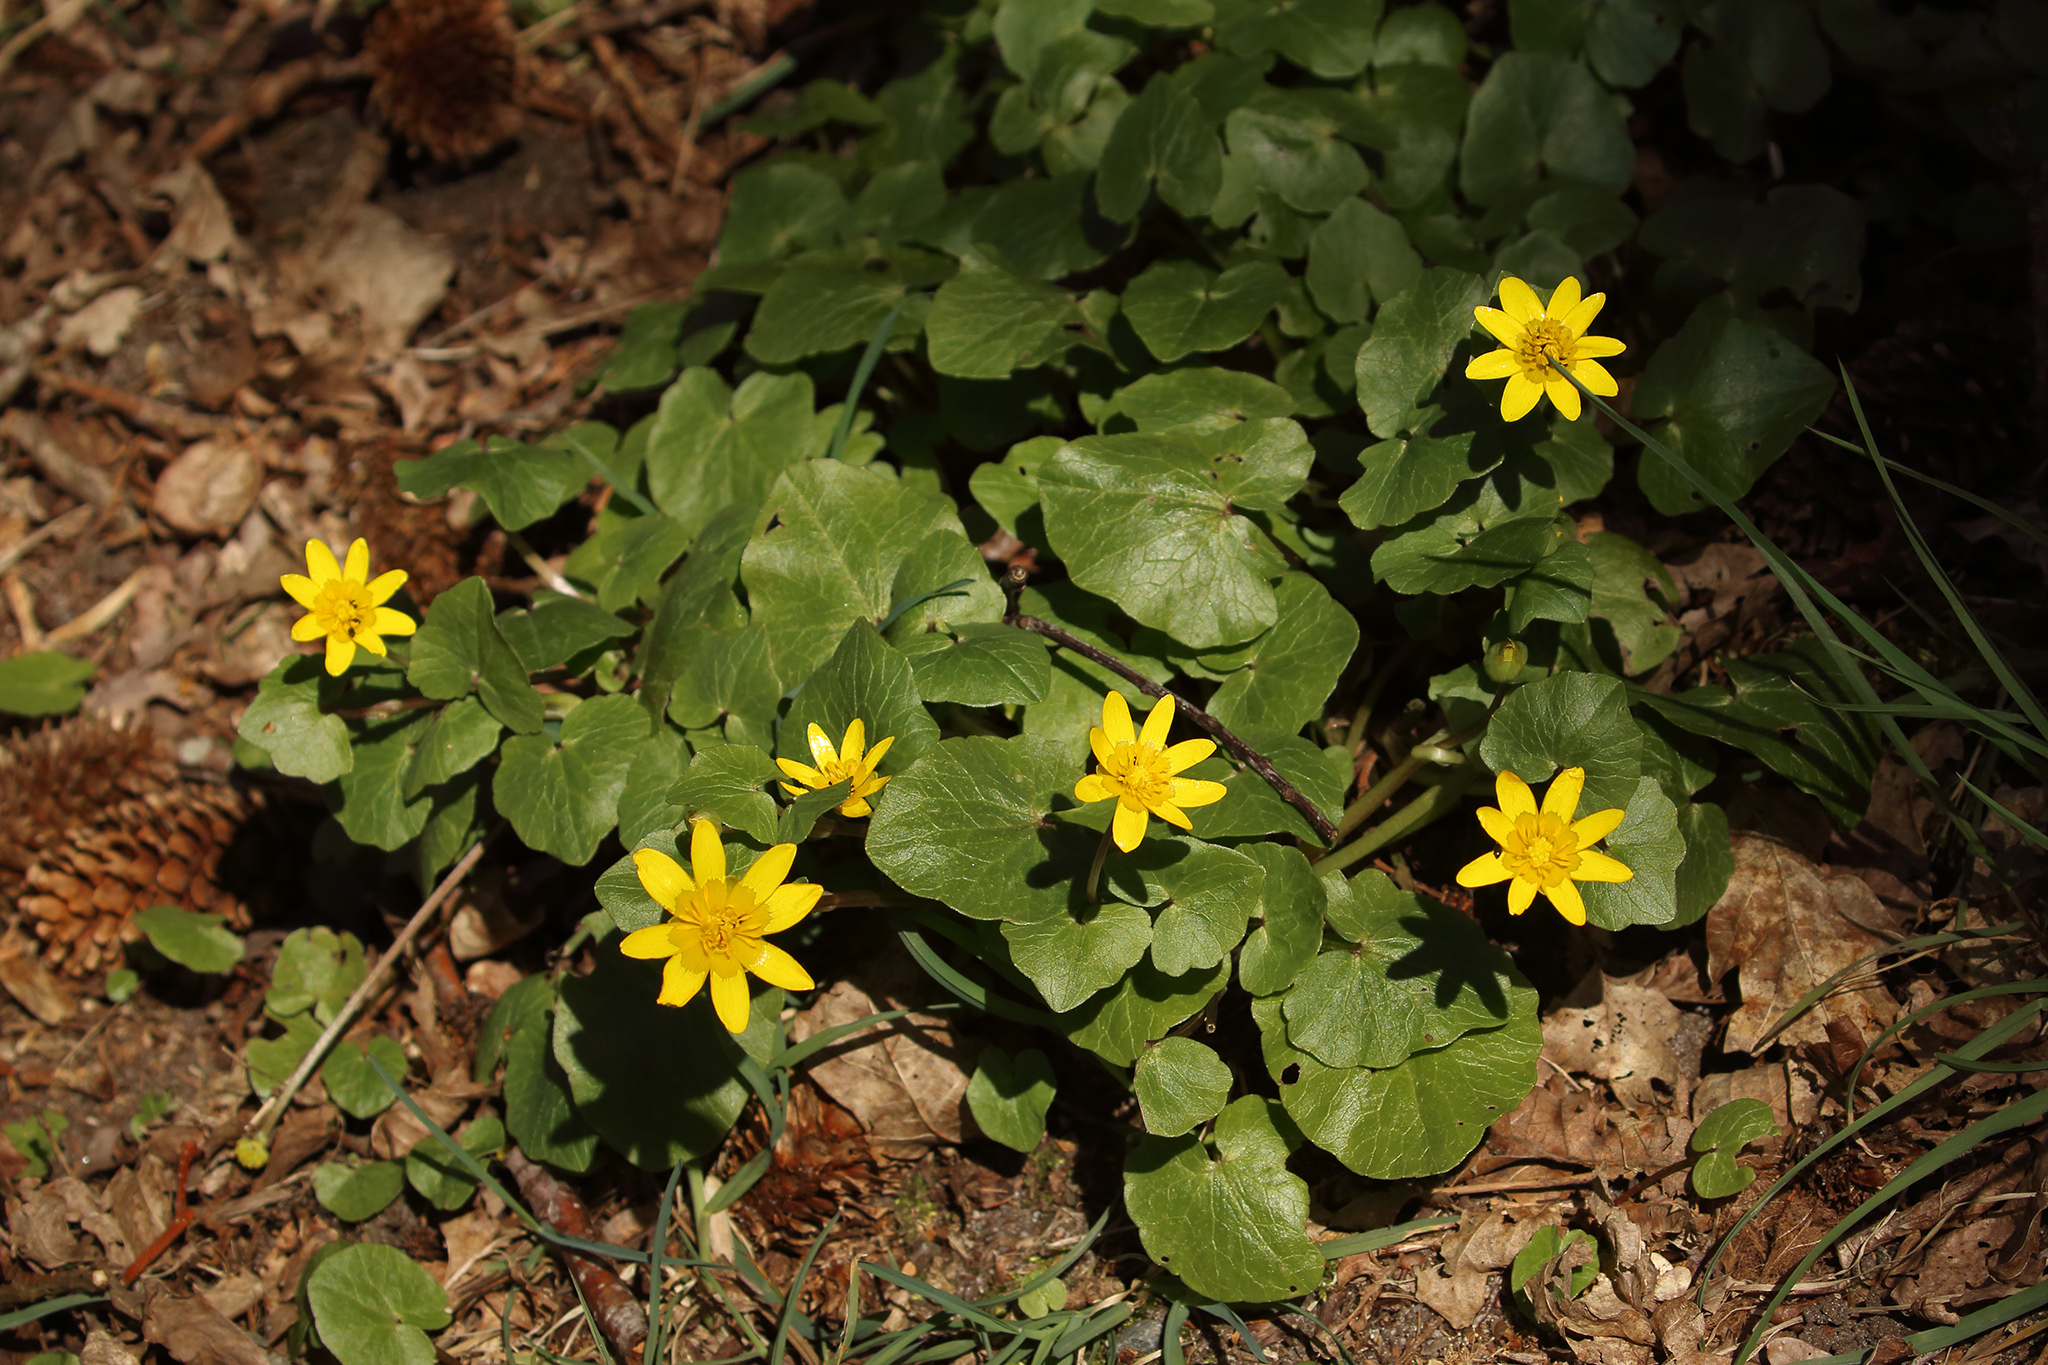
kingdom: Plantae
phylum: Tracheophyta
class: Magnoliopsida
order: Ranunculales
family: Ranunculaceae
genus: Ficaria
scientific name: Ficaria verna
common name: Lesser celandine
